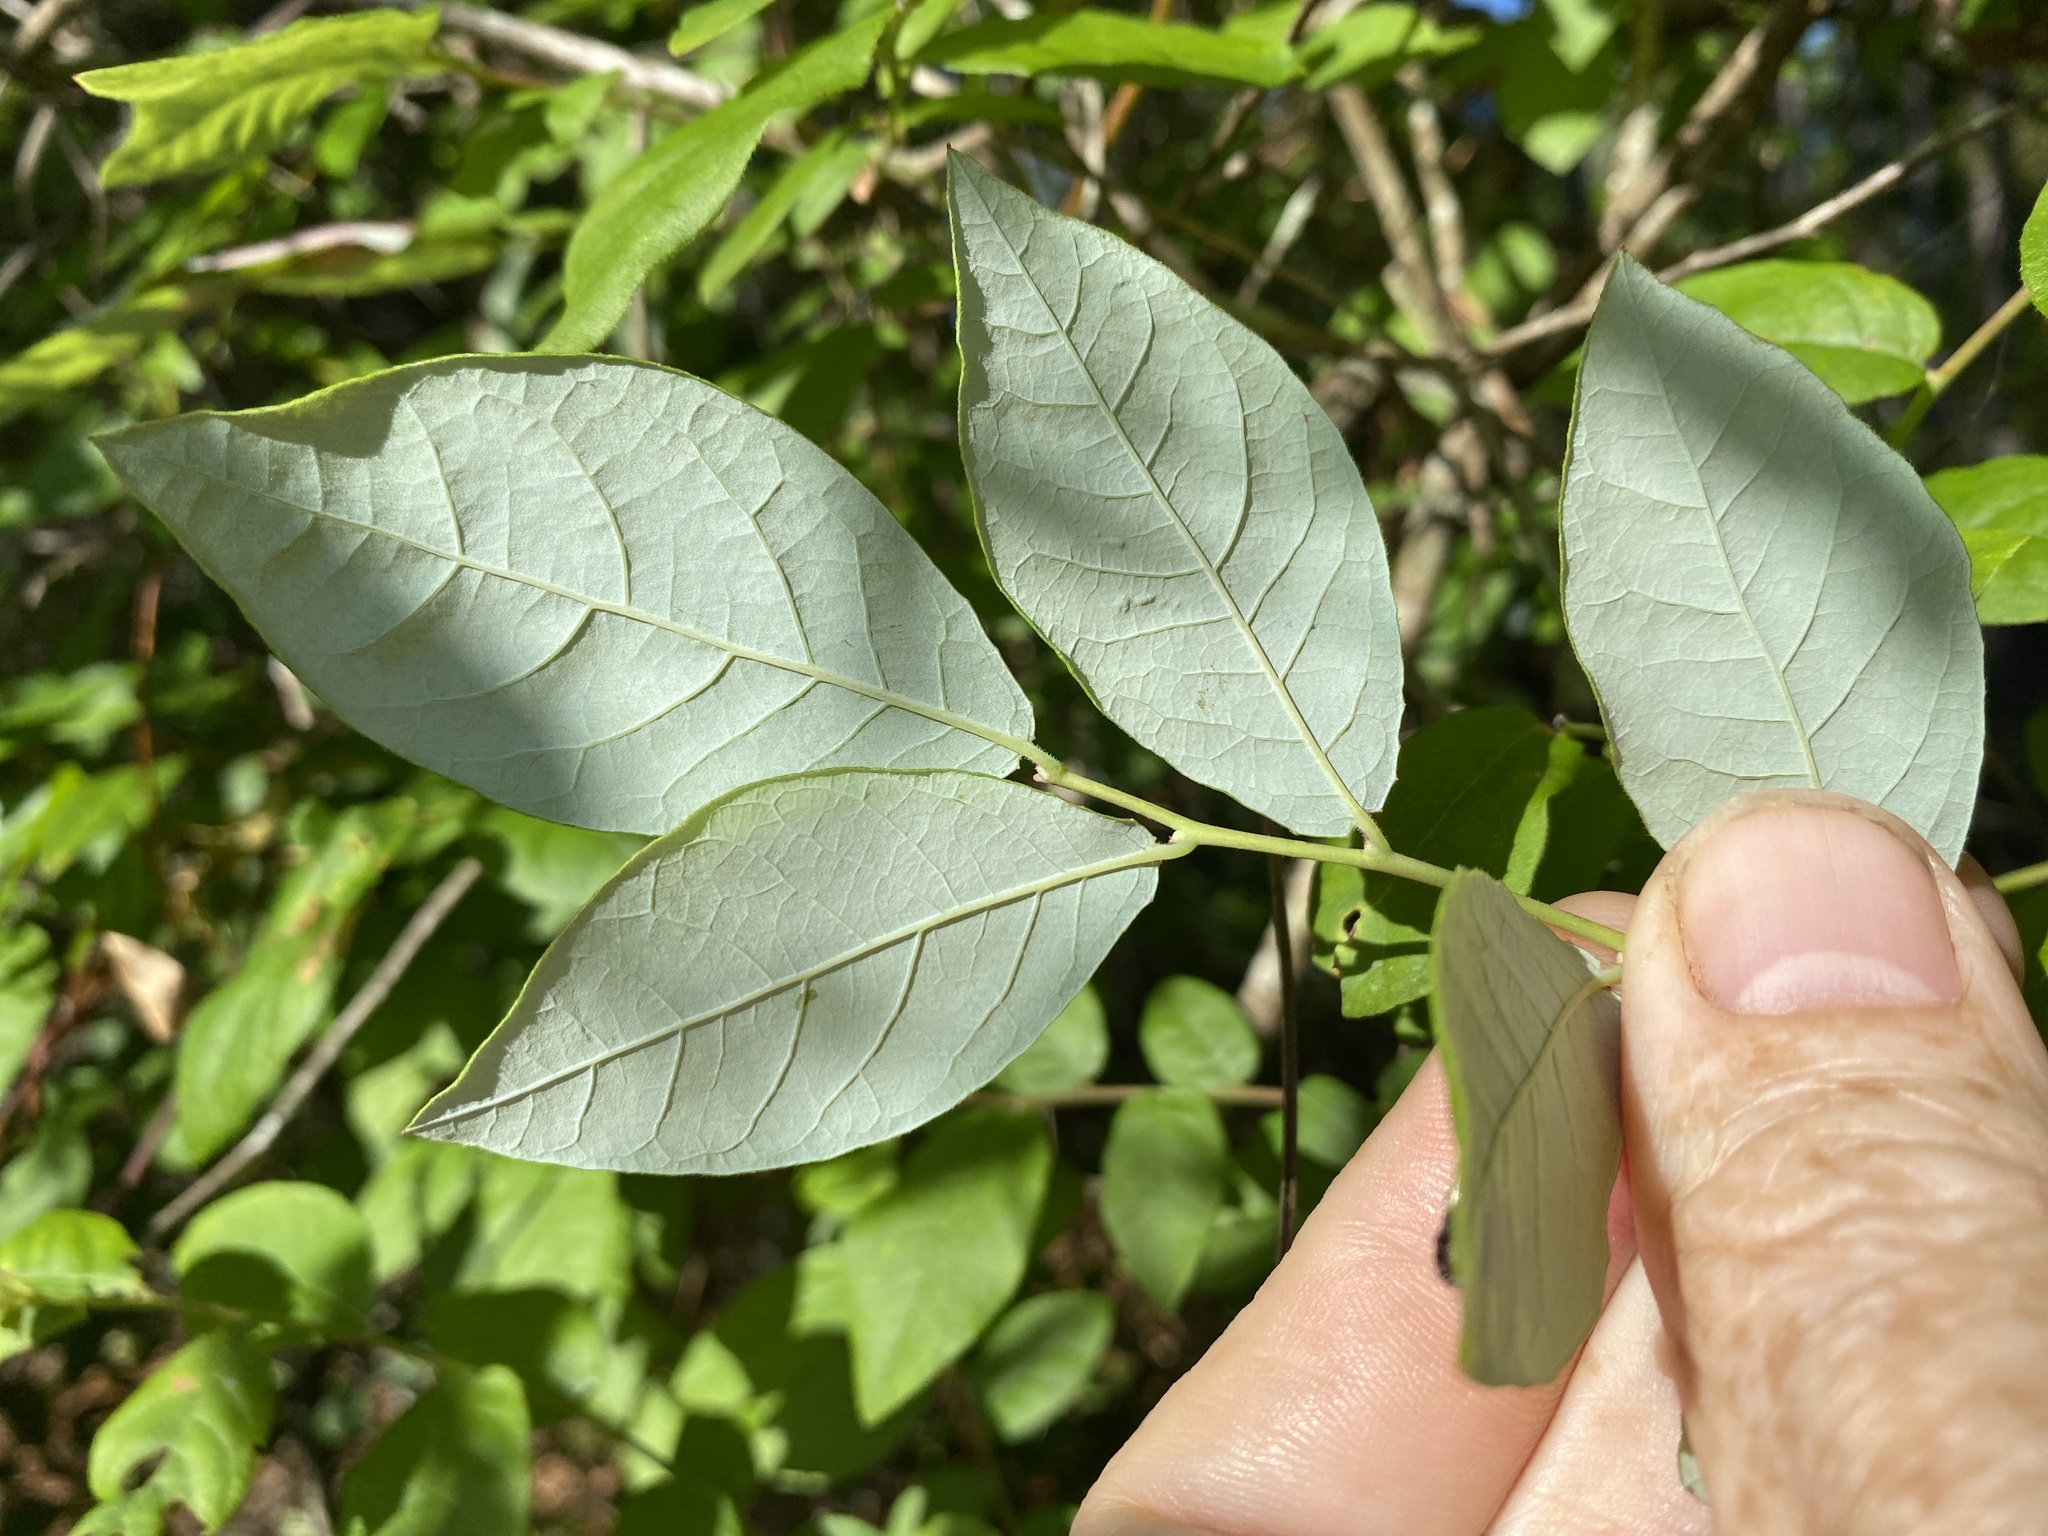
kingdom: Plantae
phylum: Tracheophyta
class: Magnoliopsida
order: Ericales
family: Ericaceae
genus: Vaccinium
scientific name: Vaccinium stamineum
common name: Deerberry
